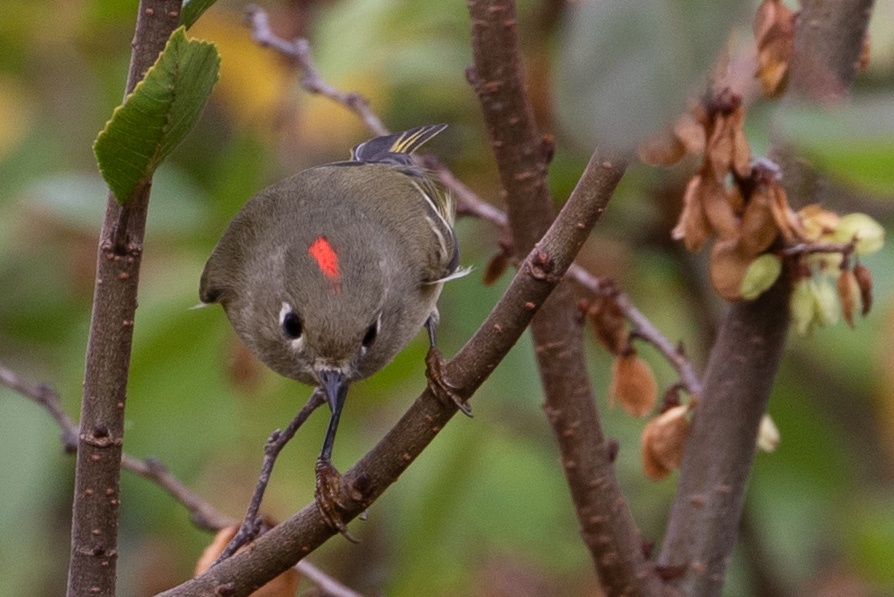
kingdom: Animalia
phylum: Chordata
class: Aves
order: Passeriformes
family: Regulidae
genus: Regulus
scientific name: Regulus calendula
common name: Ruby-crowned kinglet
